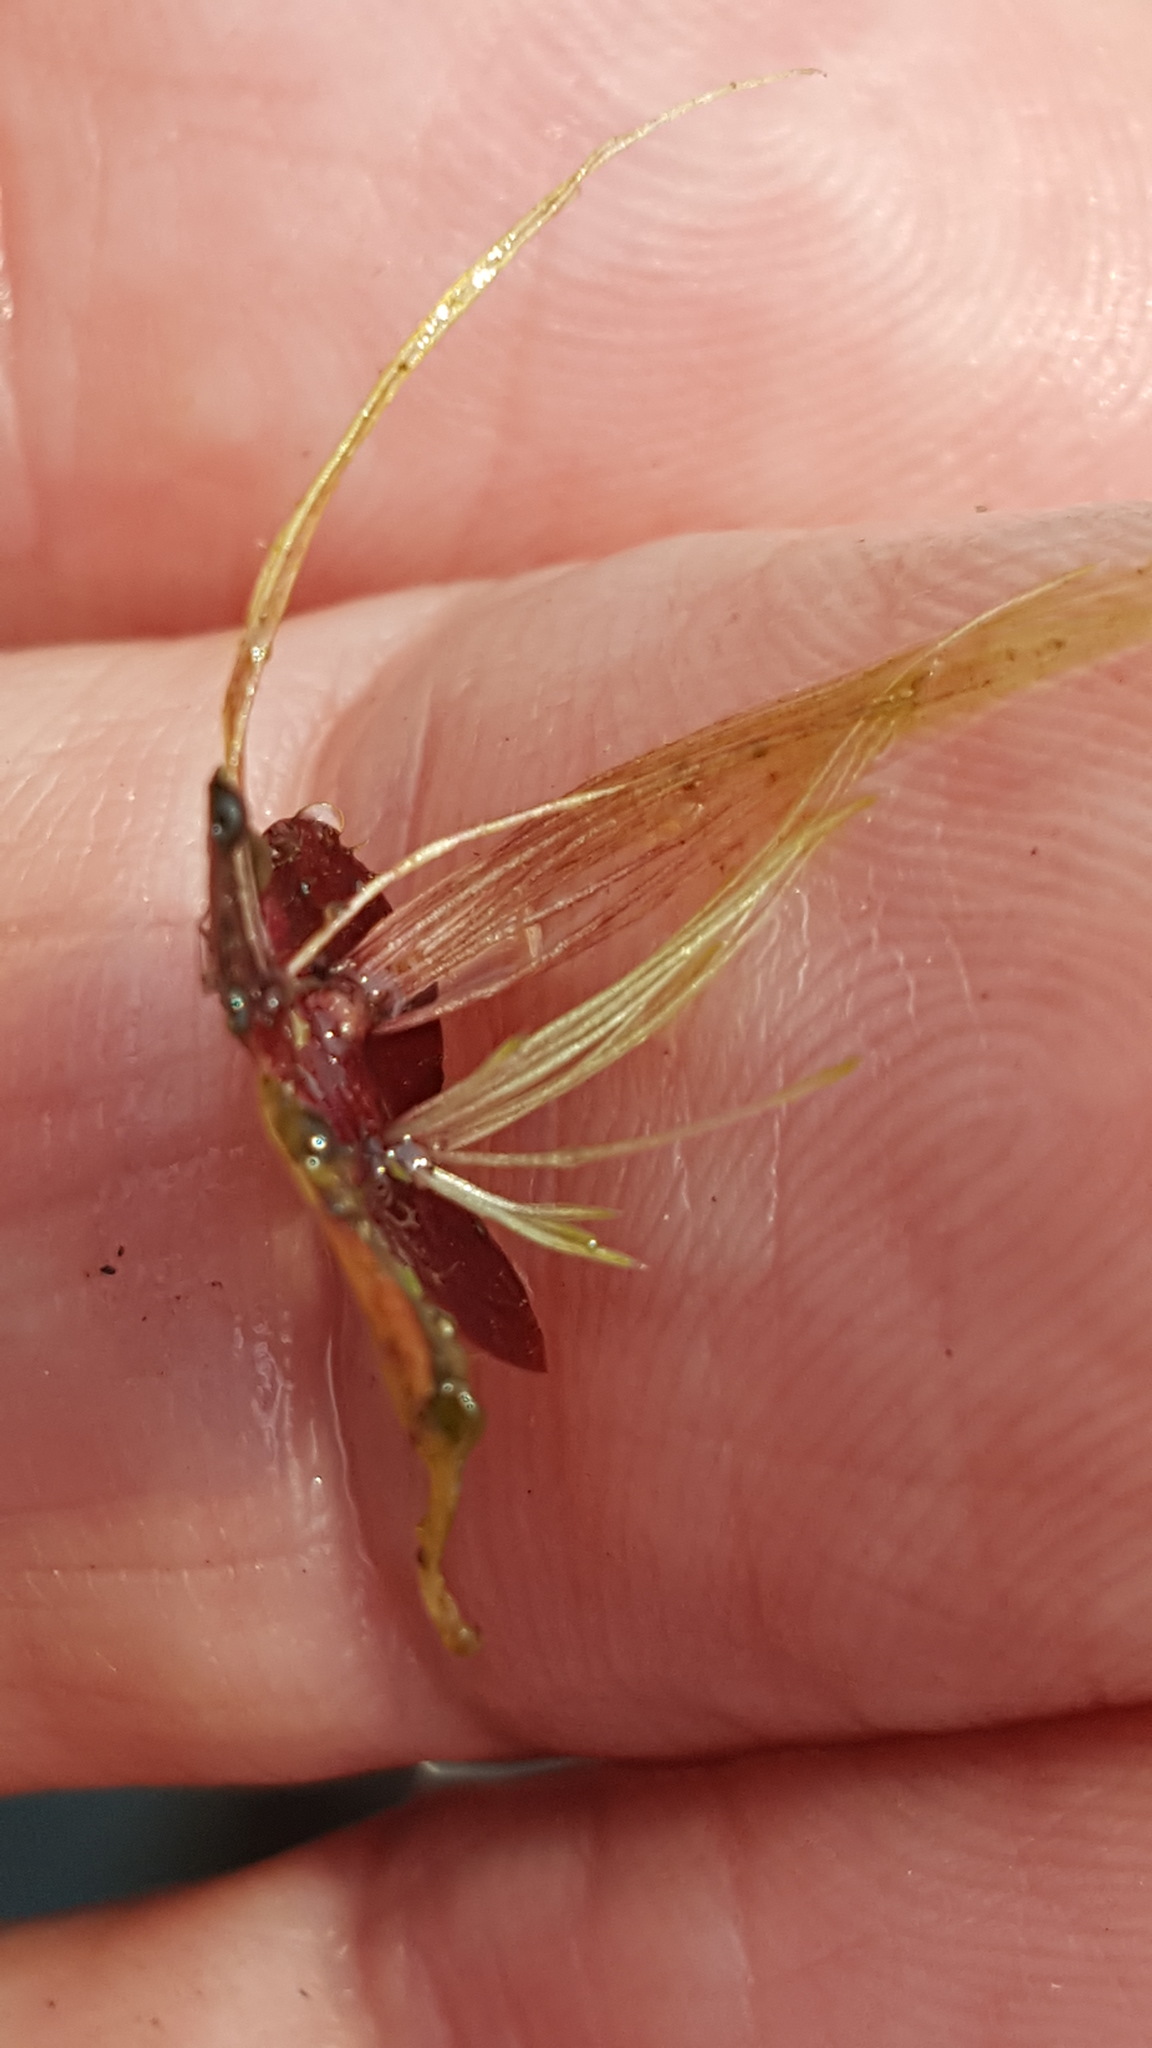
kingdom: Plantae
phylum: Tracheophyta
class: Liliopsida
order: Alismatales
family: Araceae
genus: Spirodela
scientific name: Spirodela polyrhiza
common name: Great duckweed
